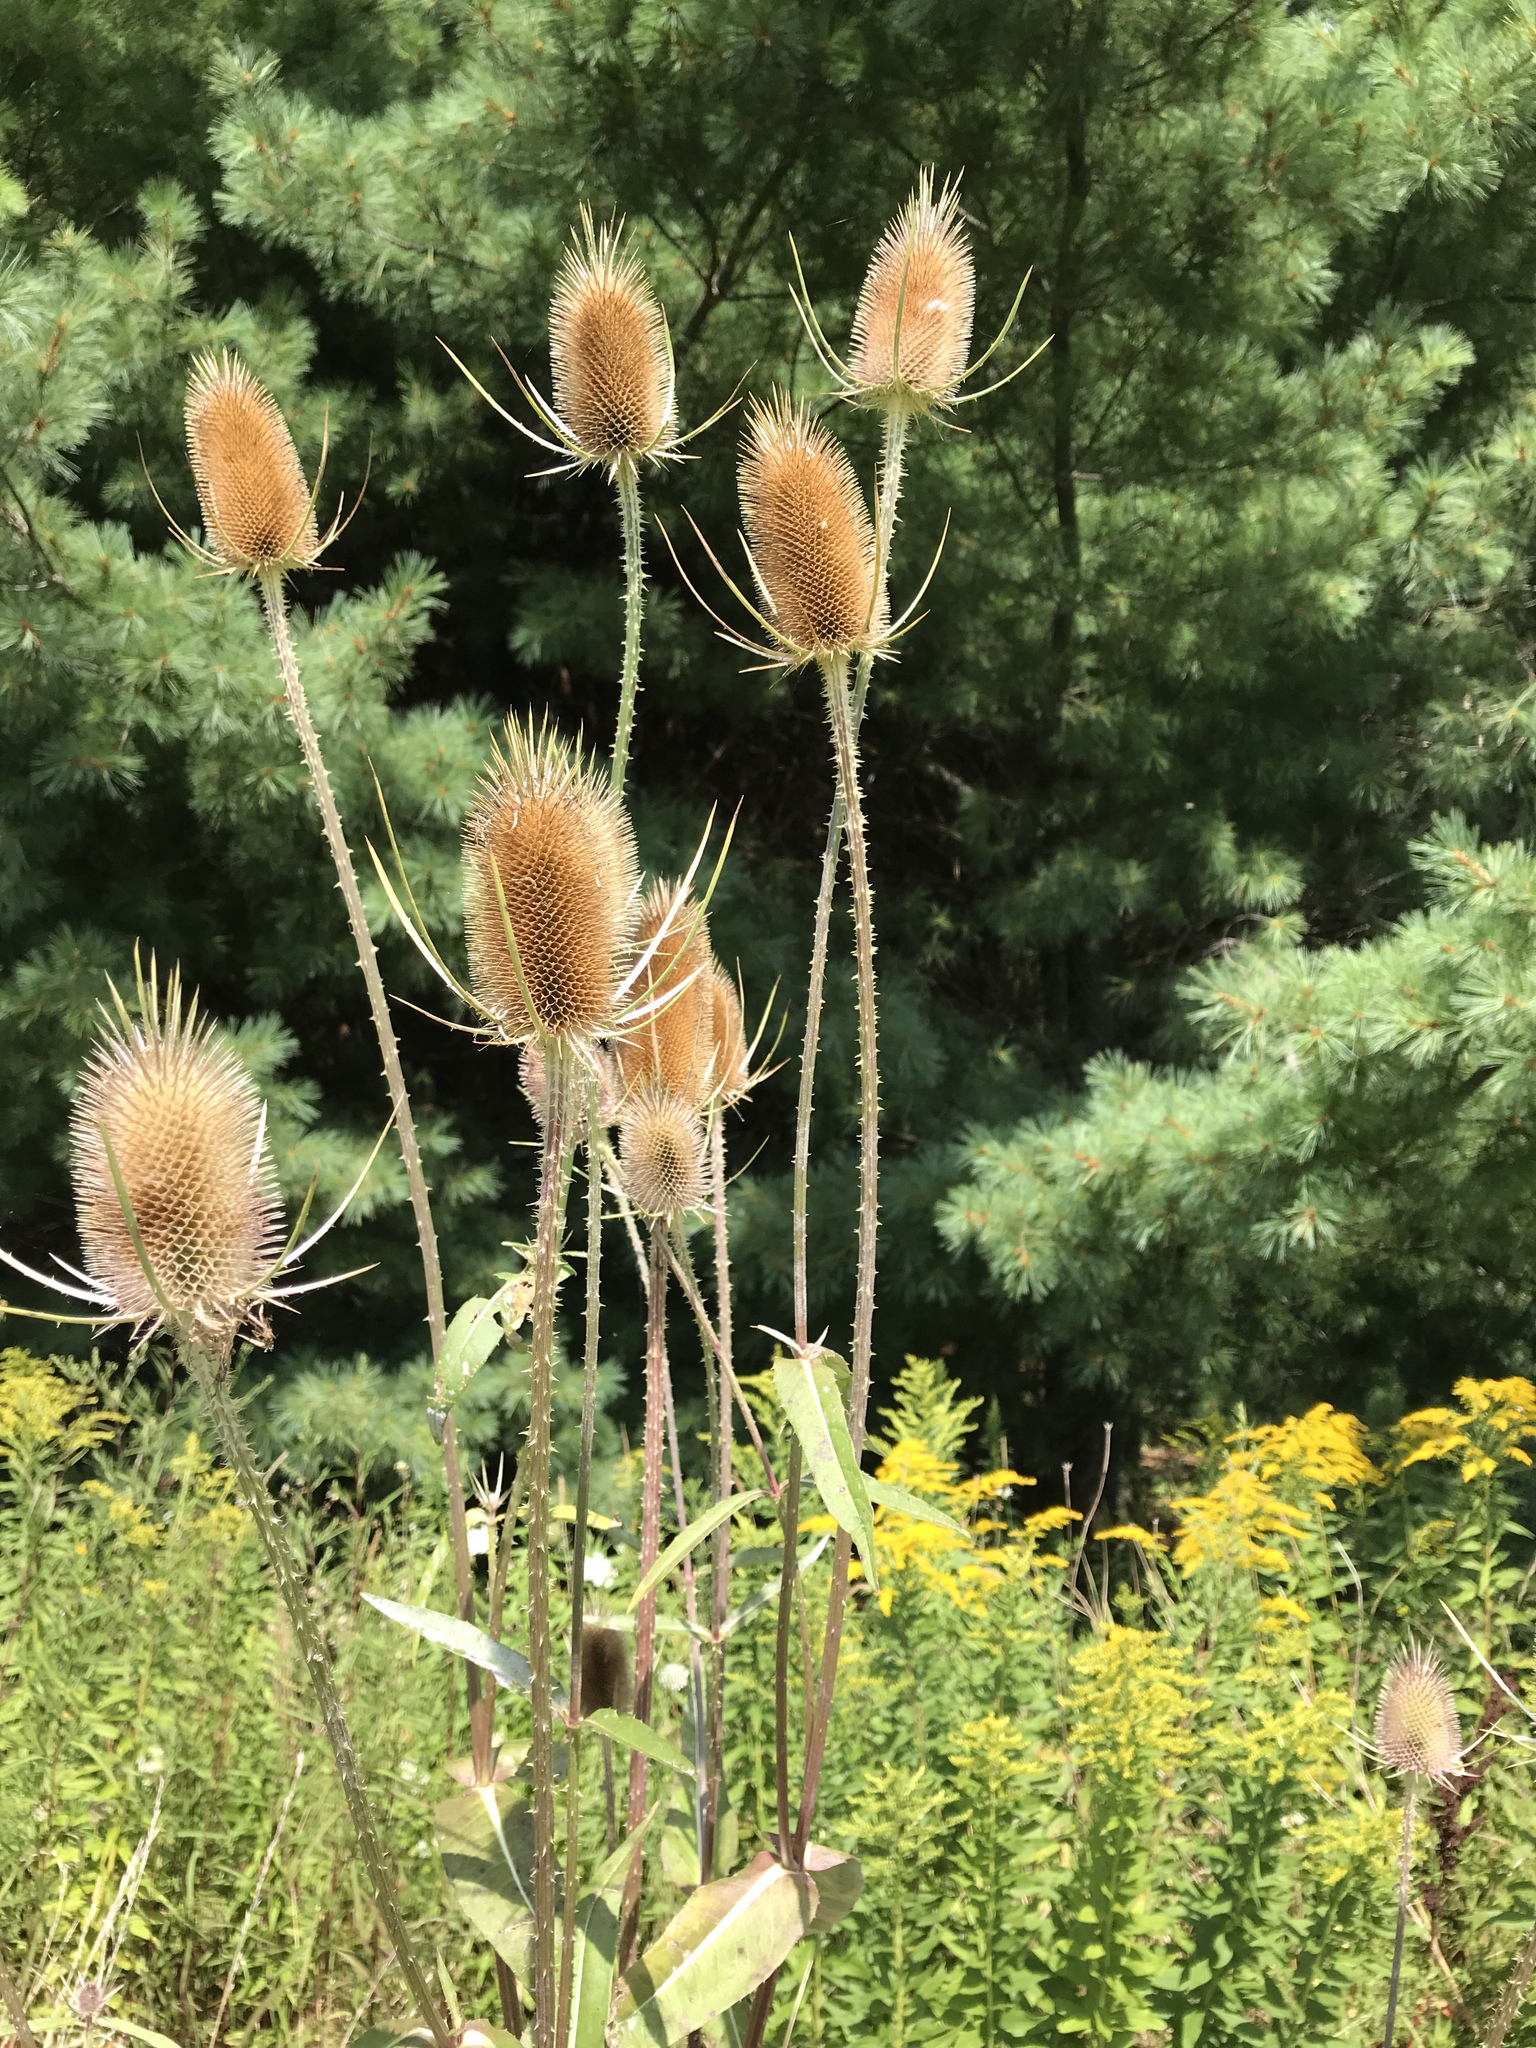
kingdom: Plantae
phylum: Tracheophyta
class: Magnoliopsida
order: Dipsacales
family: Caprifoliaceae
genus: Dipsacus
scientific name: Dipsacus fullonum
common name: Teasel
